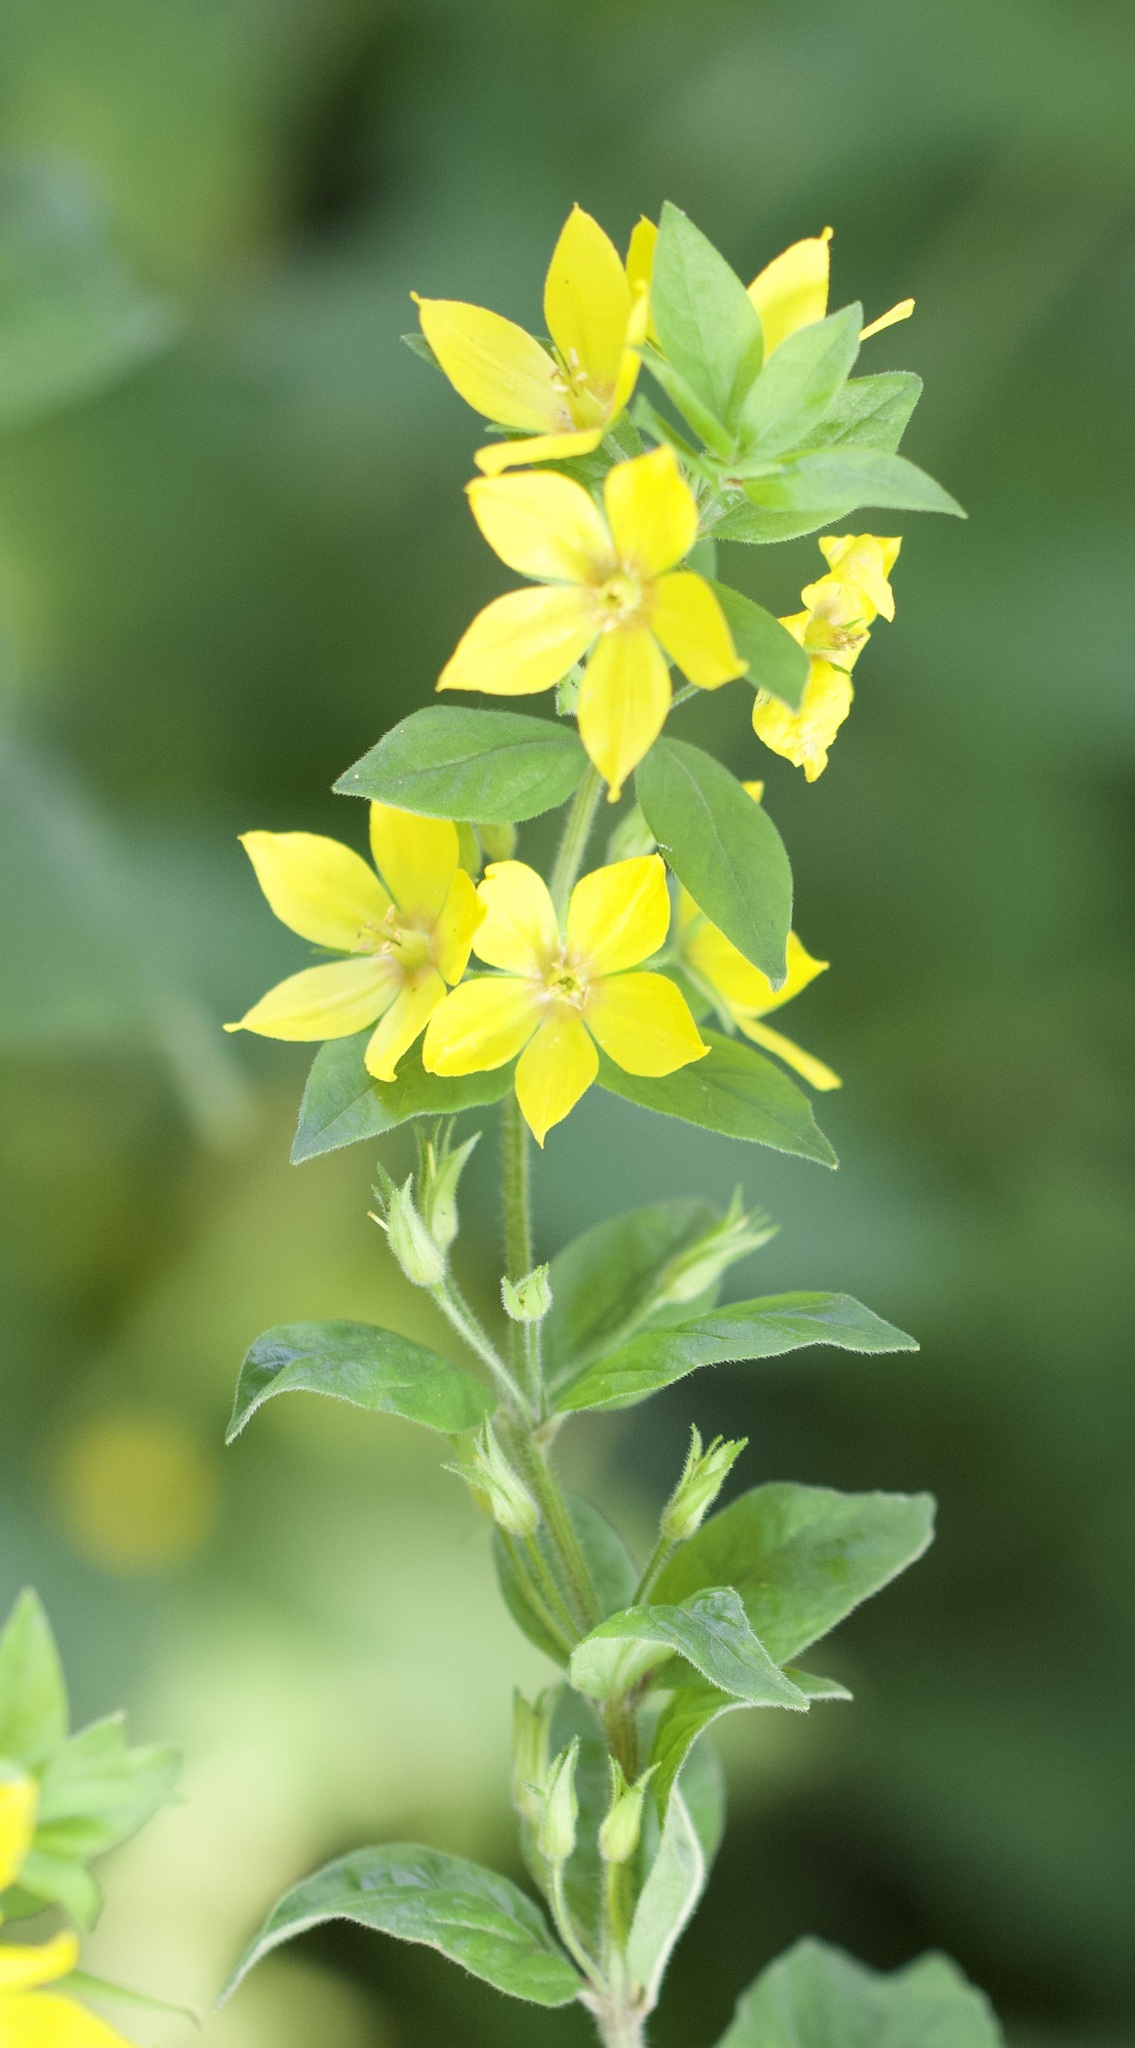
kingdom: Plantae
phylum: Tracheophyta
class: Magnoliopsida
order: Ericales
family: Primulaceae
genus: Lysimachia
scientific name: Lysimachia punctata
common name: Dotted loosestrife
